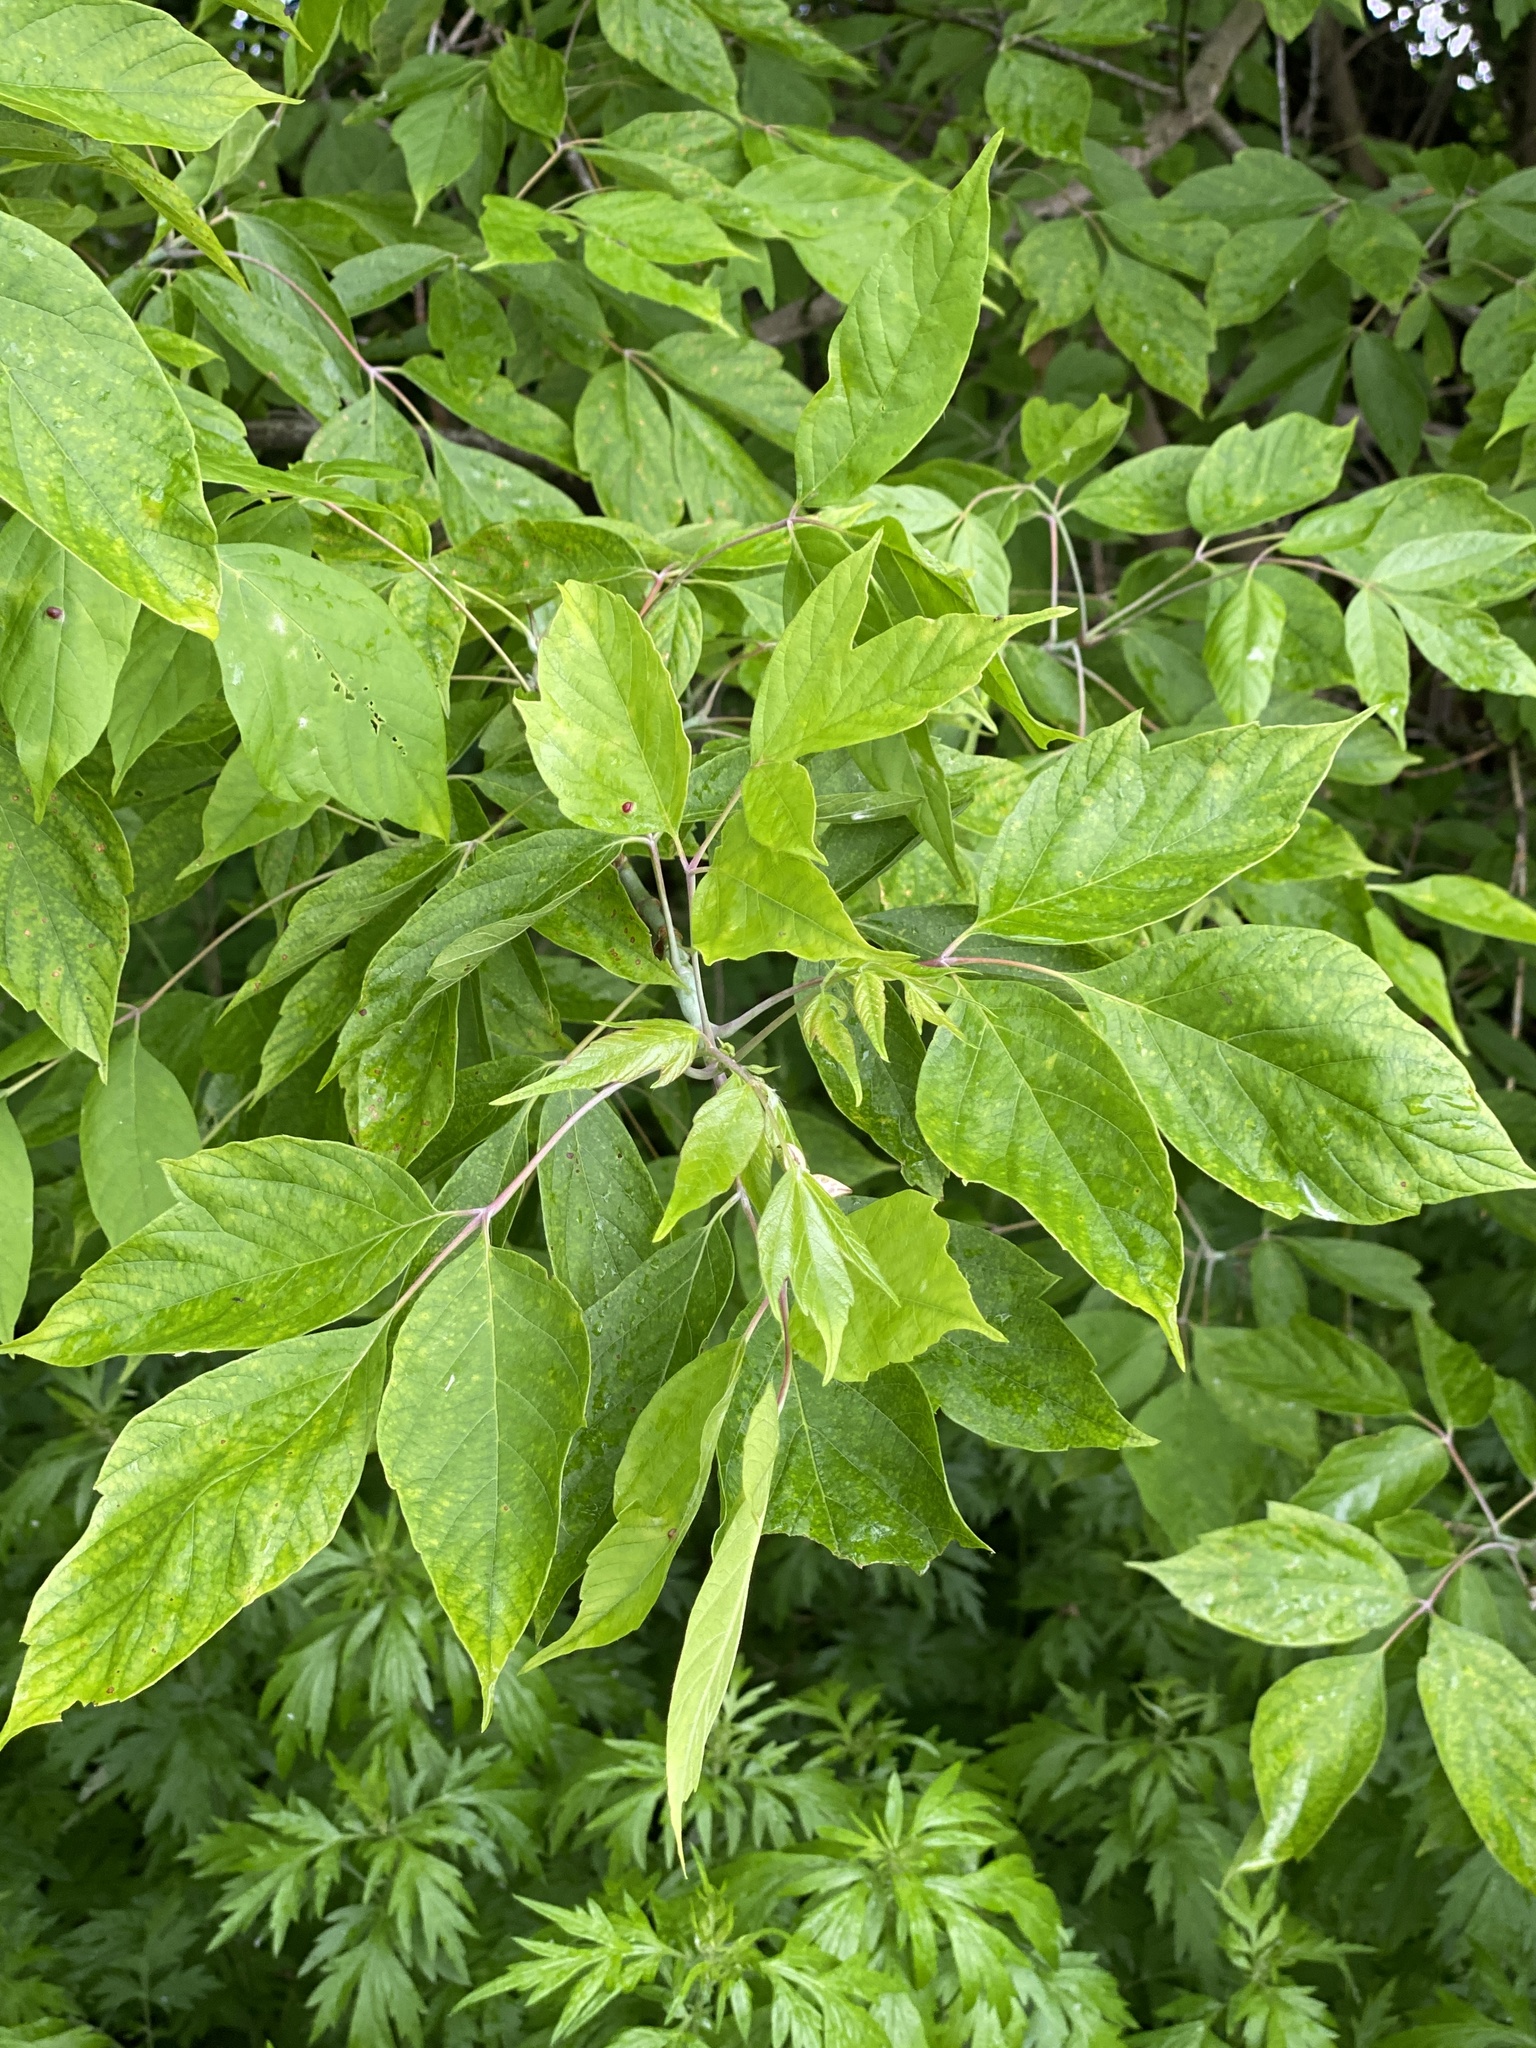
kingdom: Plantae
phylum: Tracheophyta
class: Magnoliopsida
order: Sapindales
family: Sapindaceae
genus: Acer
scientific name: Acer negundo
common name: Ashleaf maple
